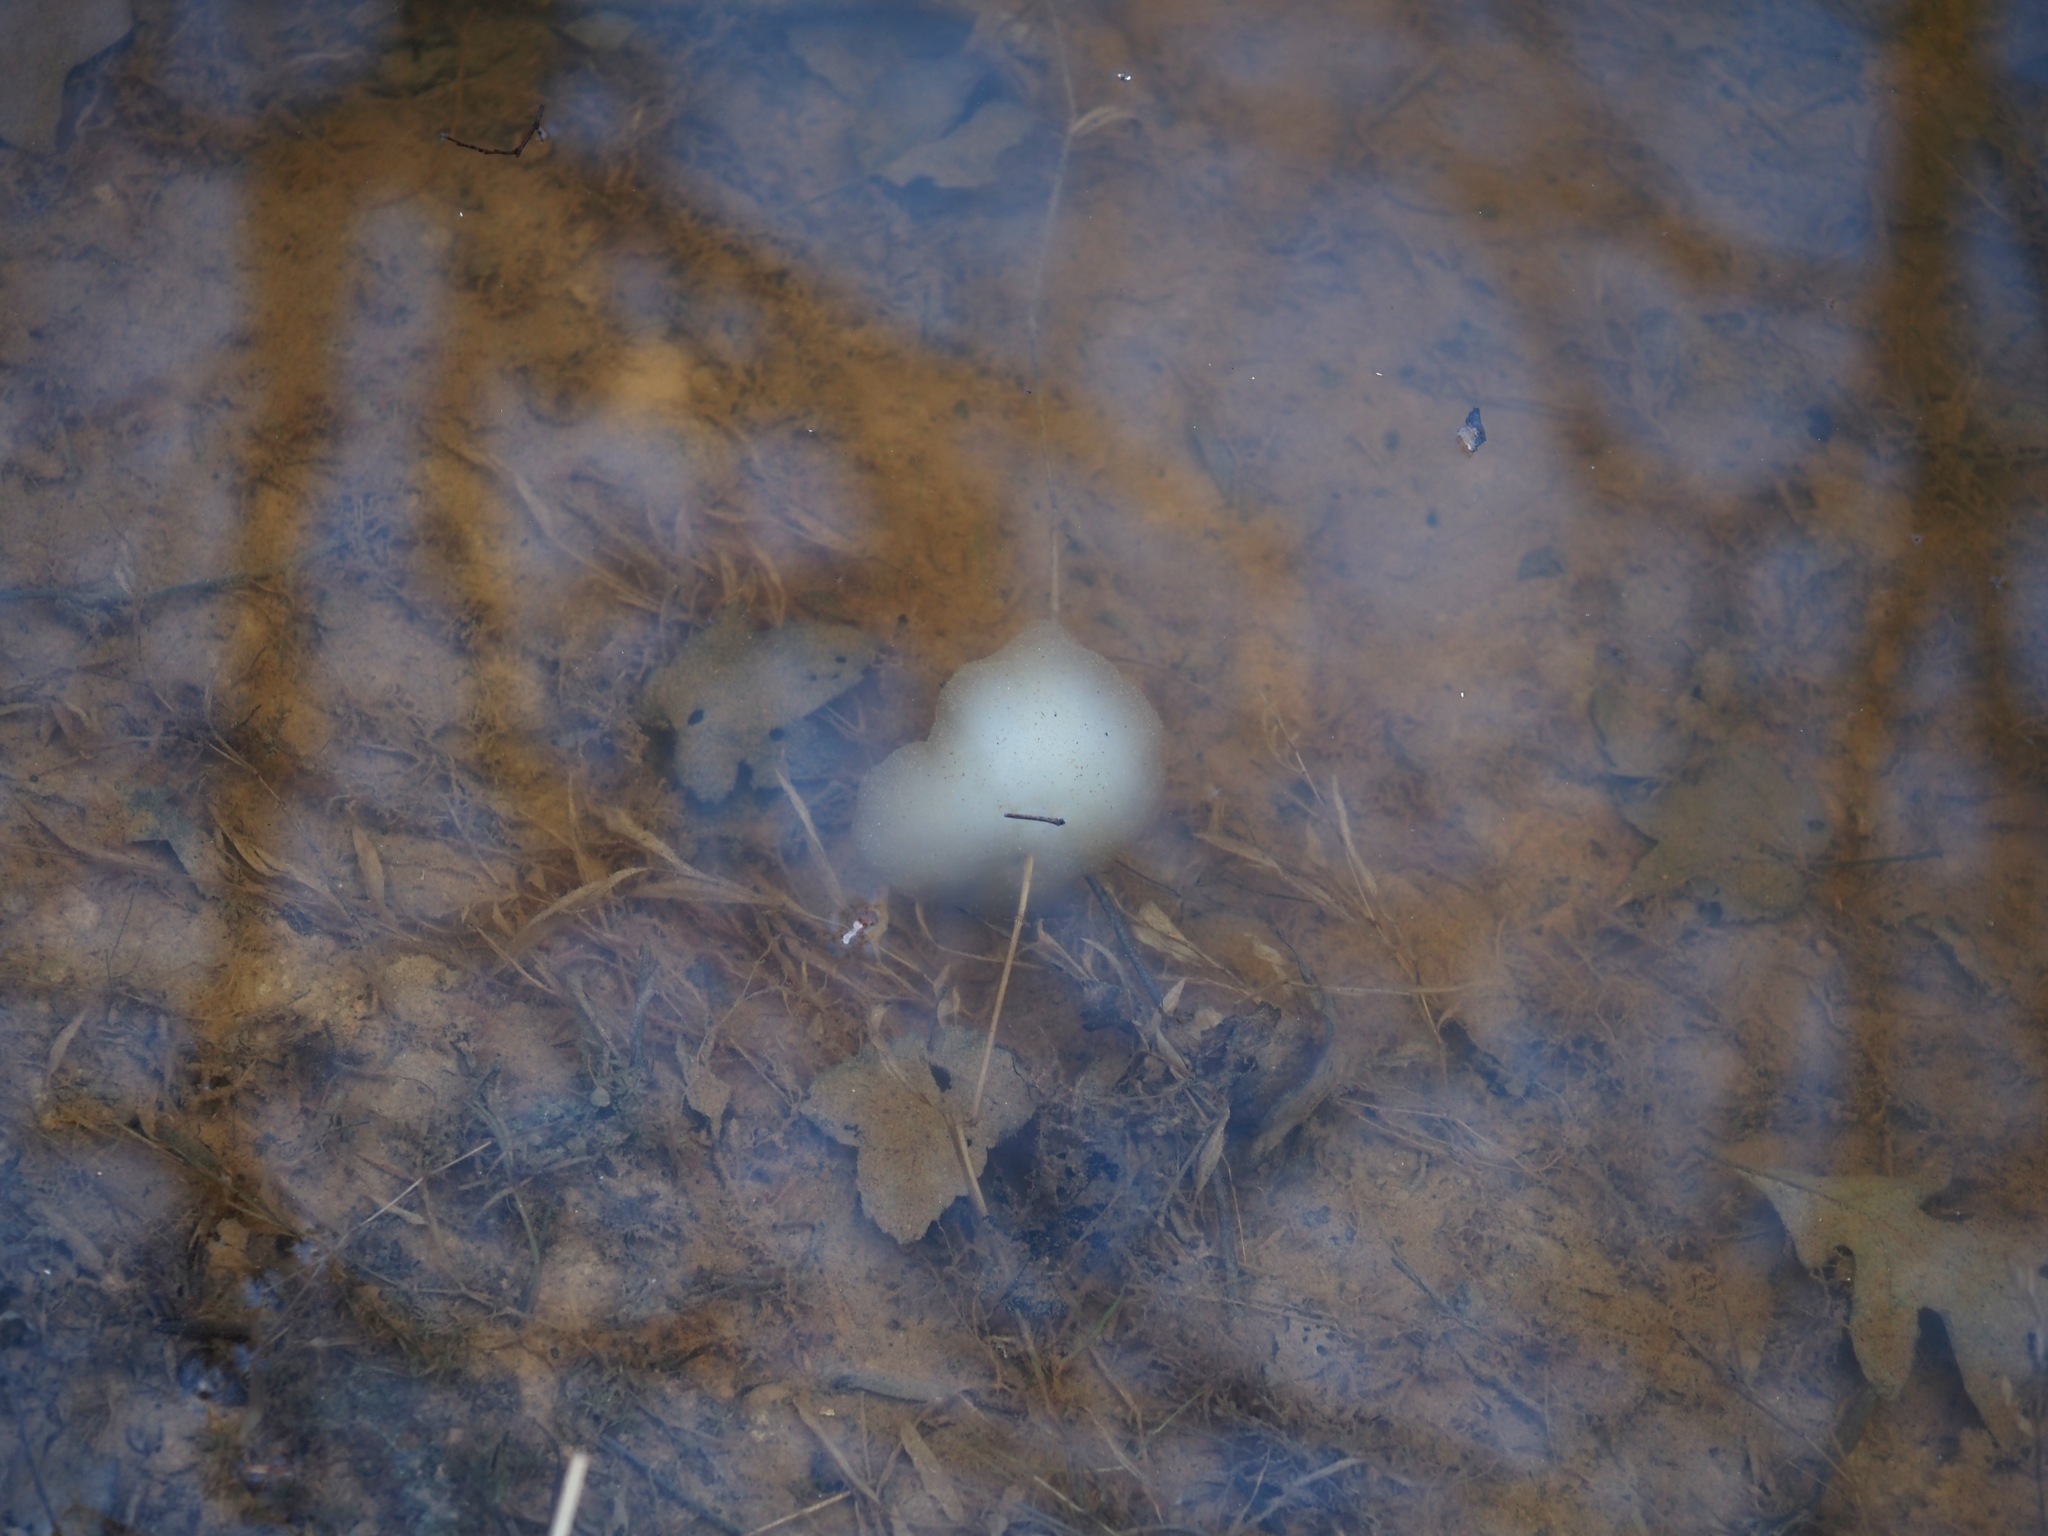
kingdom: Animalia
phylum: Chordata
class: Amphibia
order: Caudata
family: Ambystomatidae
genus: Ambystoma
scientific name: Ambystoma maculatum
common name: Spotted salamander
